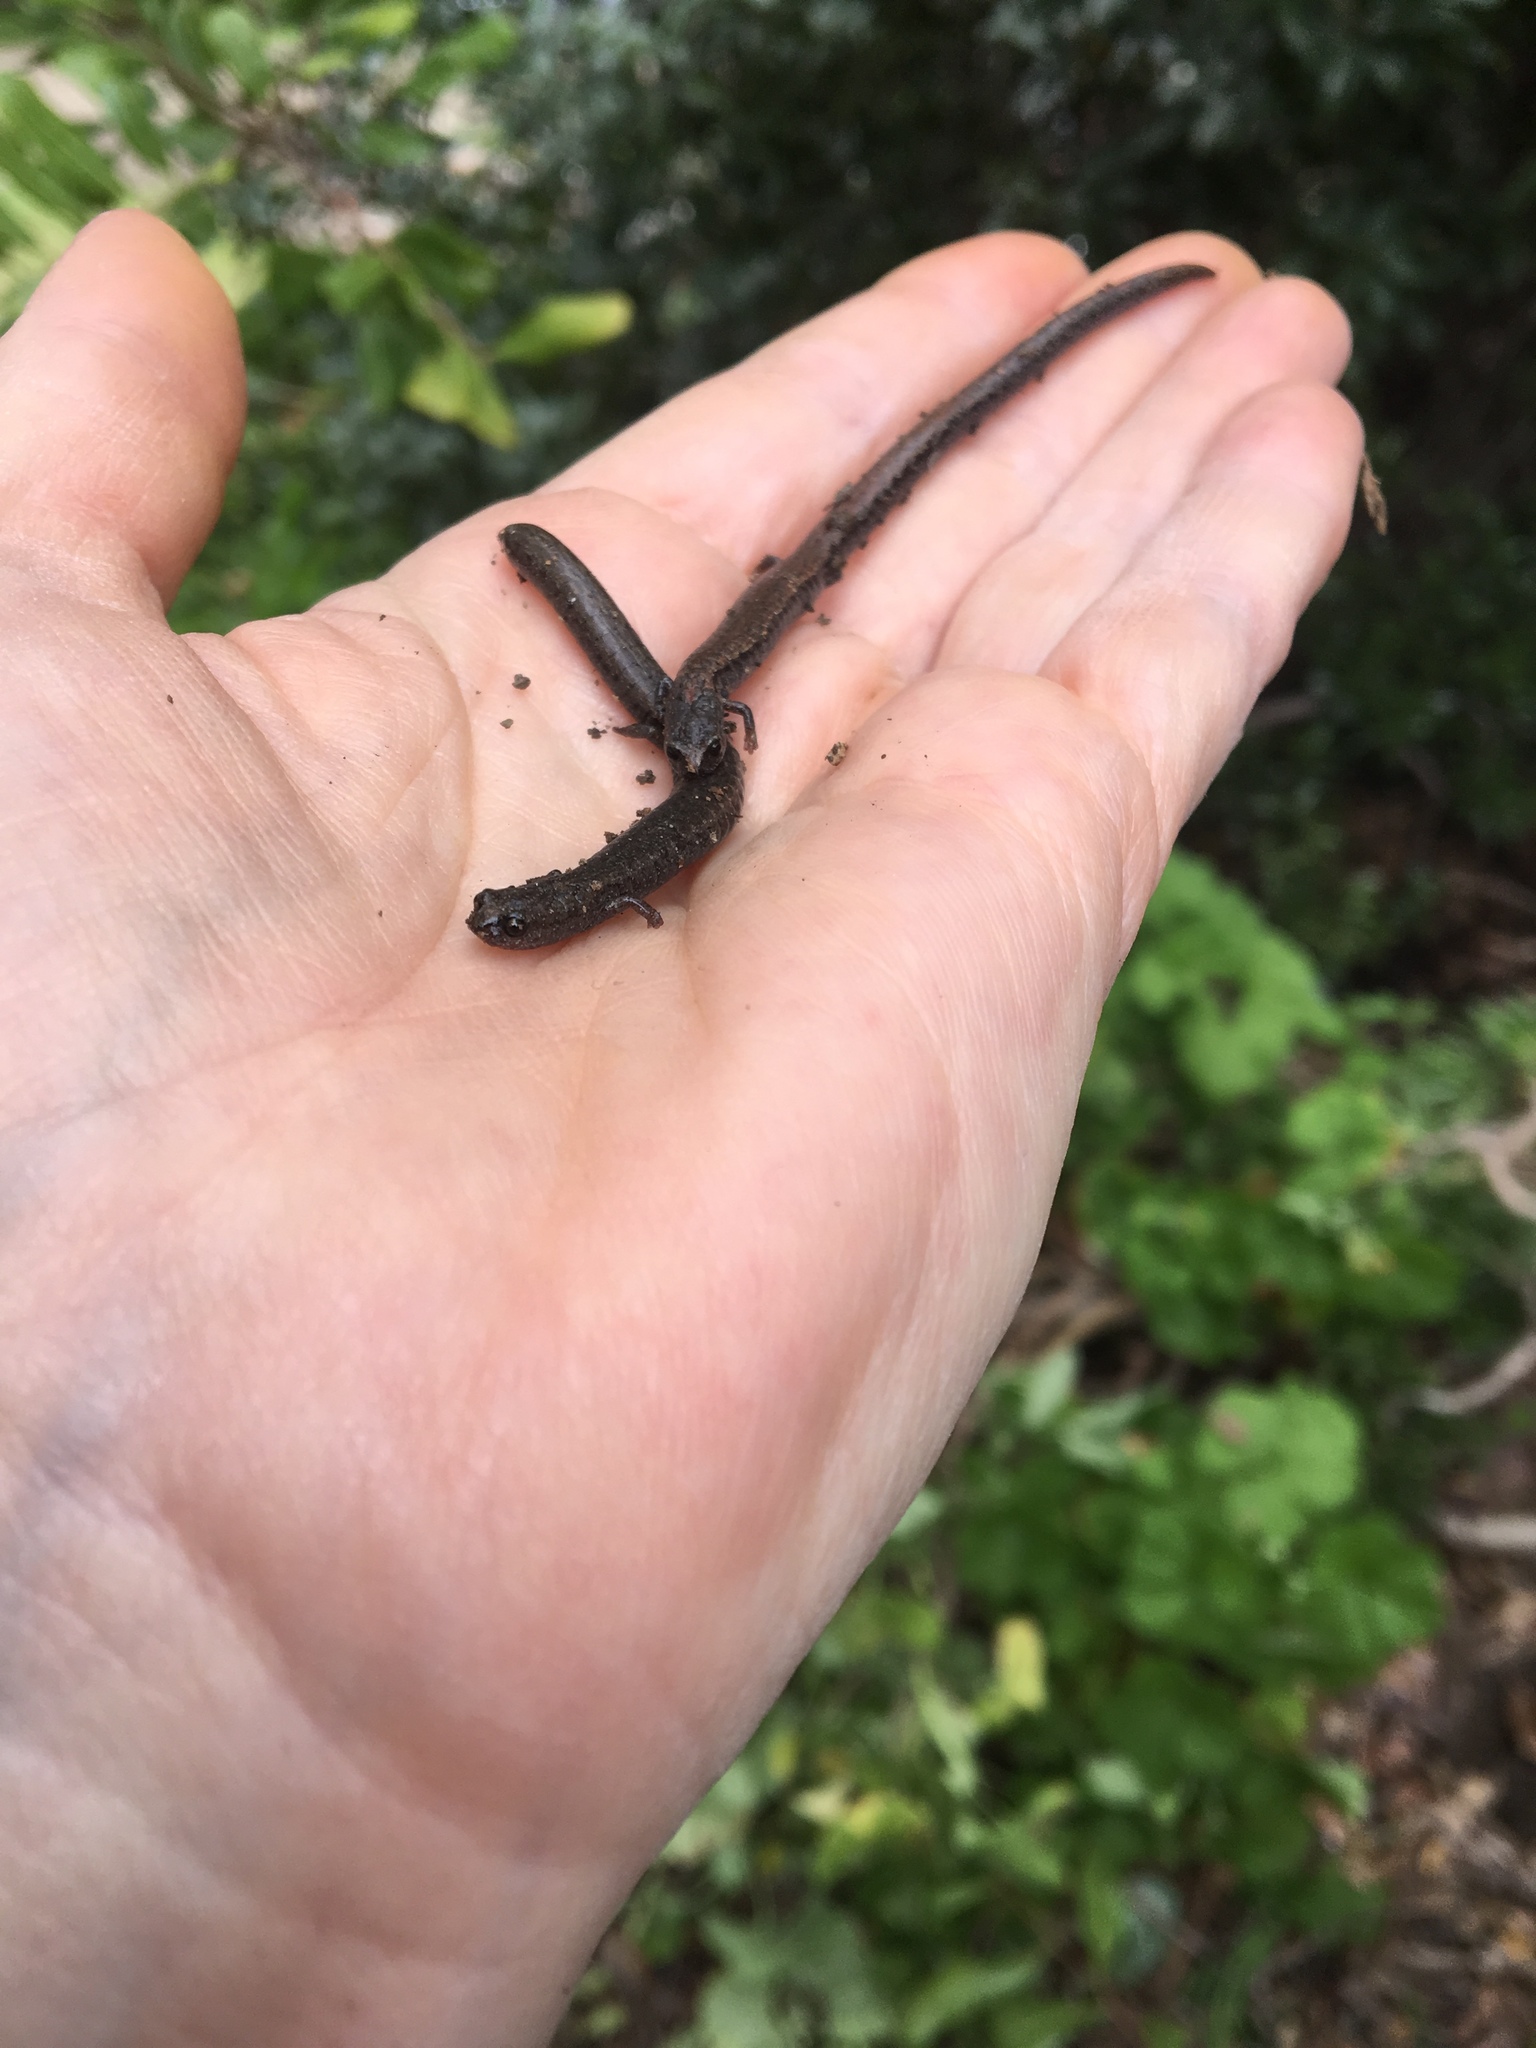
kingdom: Animalia
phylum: Chordata
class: Amphibia
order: Caudata
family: Plethodontidae
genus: Batrachoseps
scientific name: Batrachoseps nigriventris
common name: Black-bellied slender salamander
